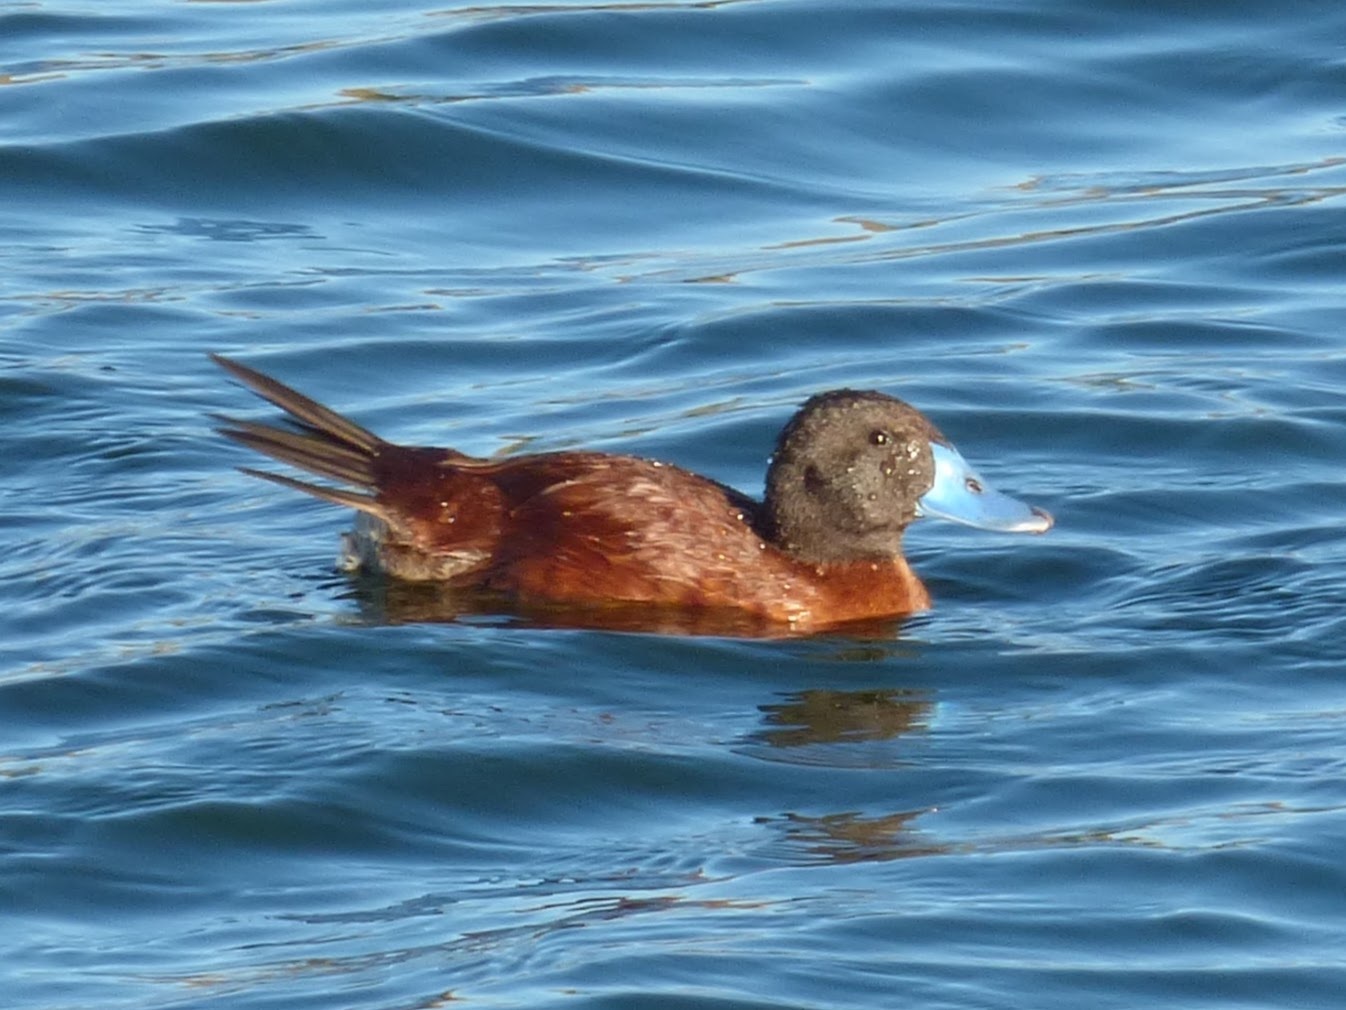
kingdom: Animalia
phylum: Chordata
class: Aves
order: Anseriformes
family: Anatidae
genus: Oxyura
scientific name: Oxyura vittata
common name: Lake duck
